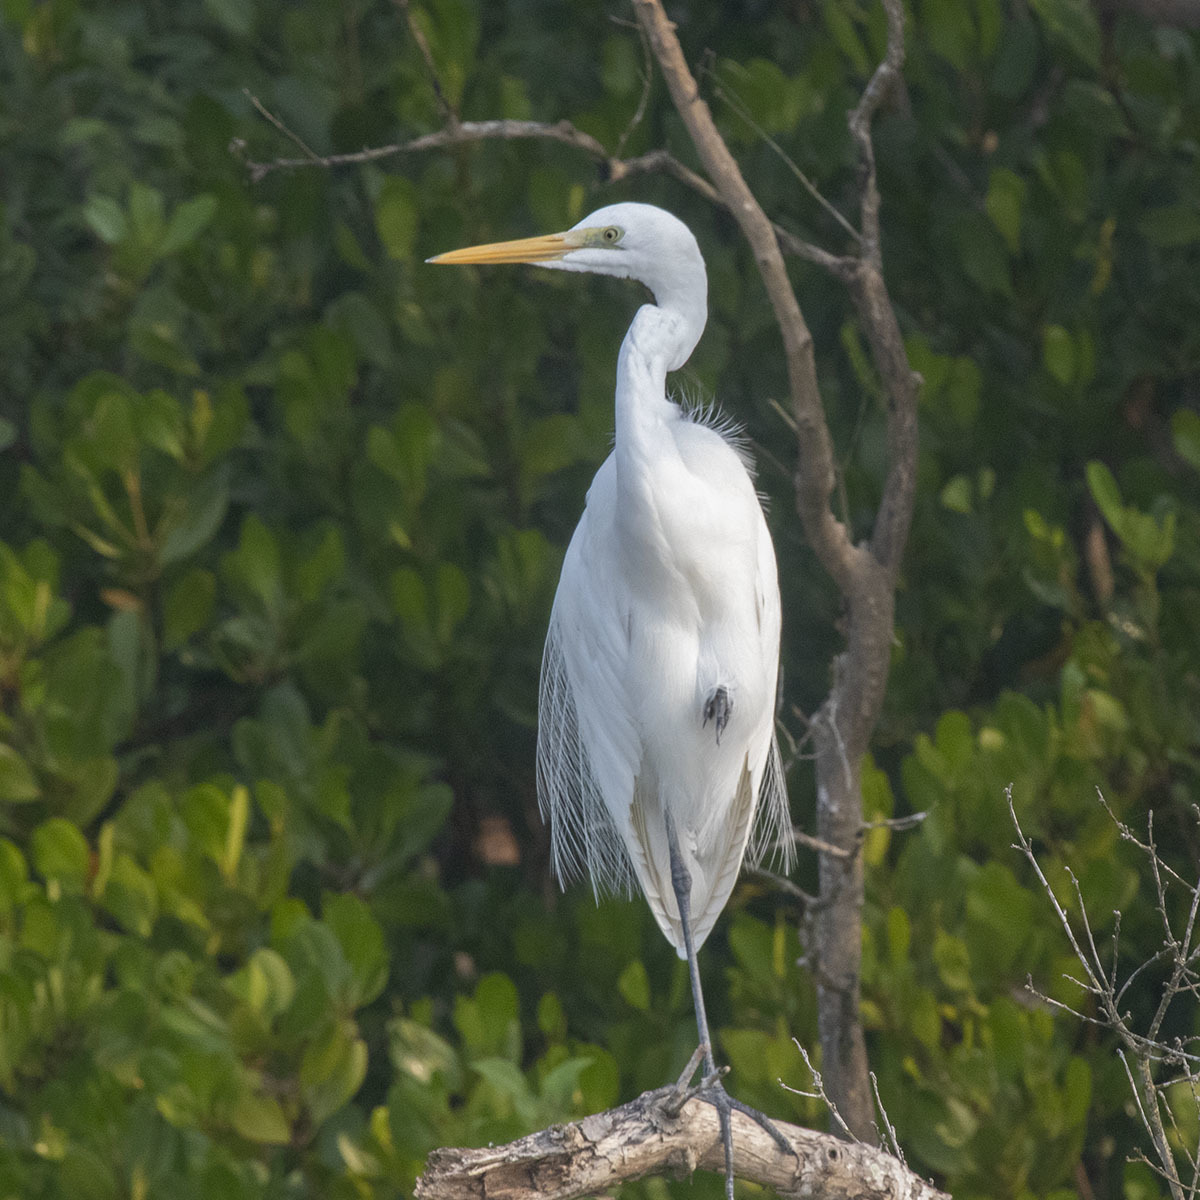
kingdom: Animalia
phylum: Chordata
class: Aves
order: Pelecaniformes
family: Ardeidae
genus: Ardea
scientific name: Ardea alba
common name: Great egret
